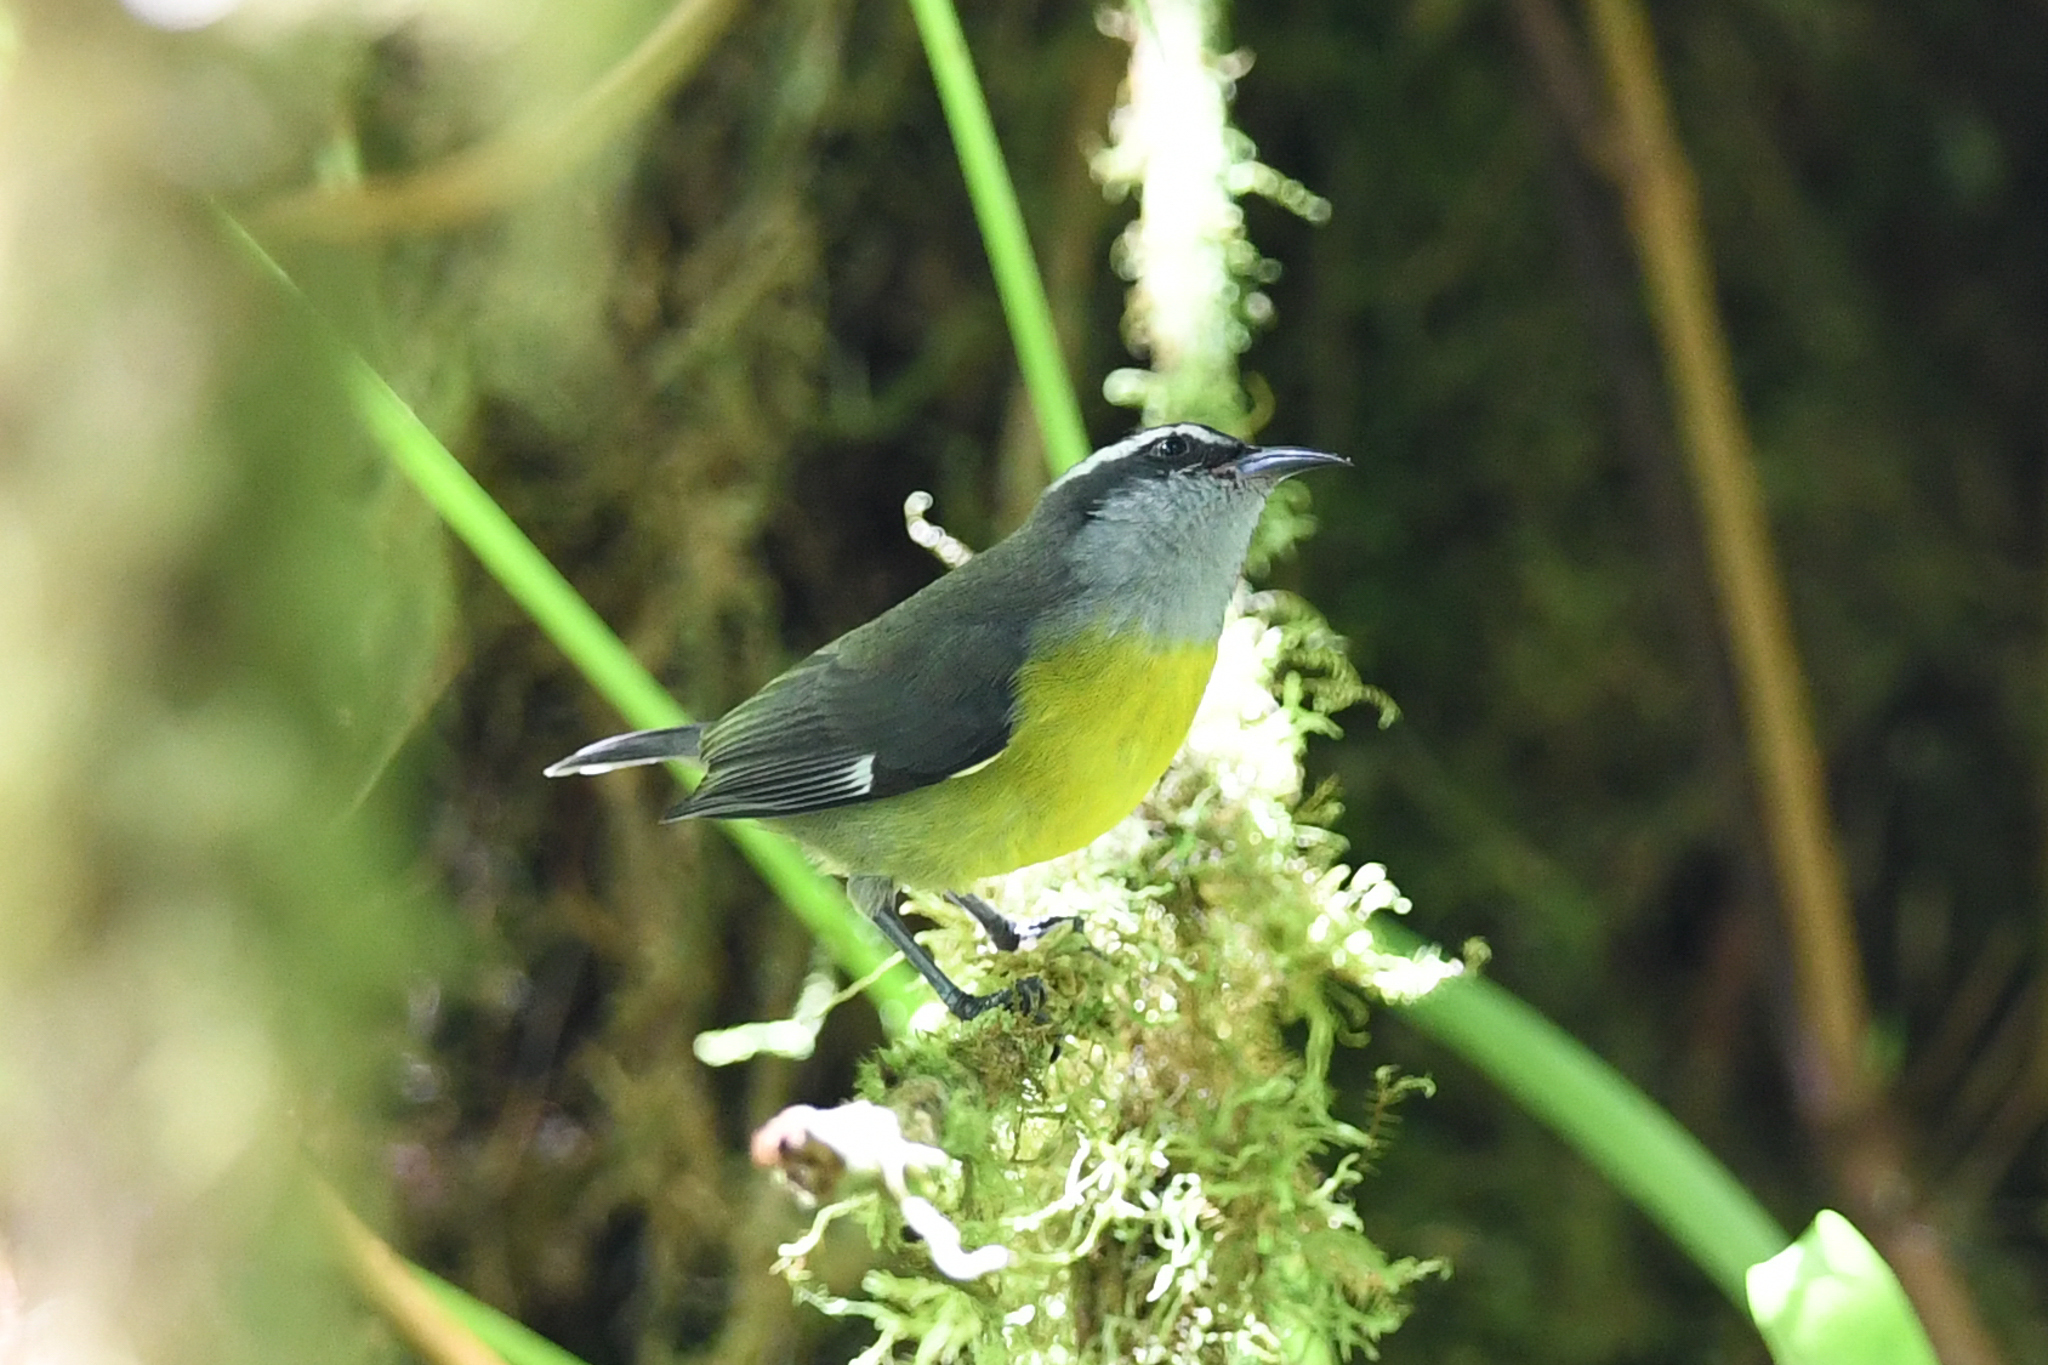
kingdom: Animalia
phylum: Chordata
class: Aves
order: Passeriformes
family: Thraupidae
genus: Coereba
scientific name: Coereba flaveola
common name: Bananaquit
